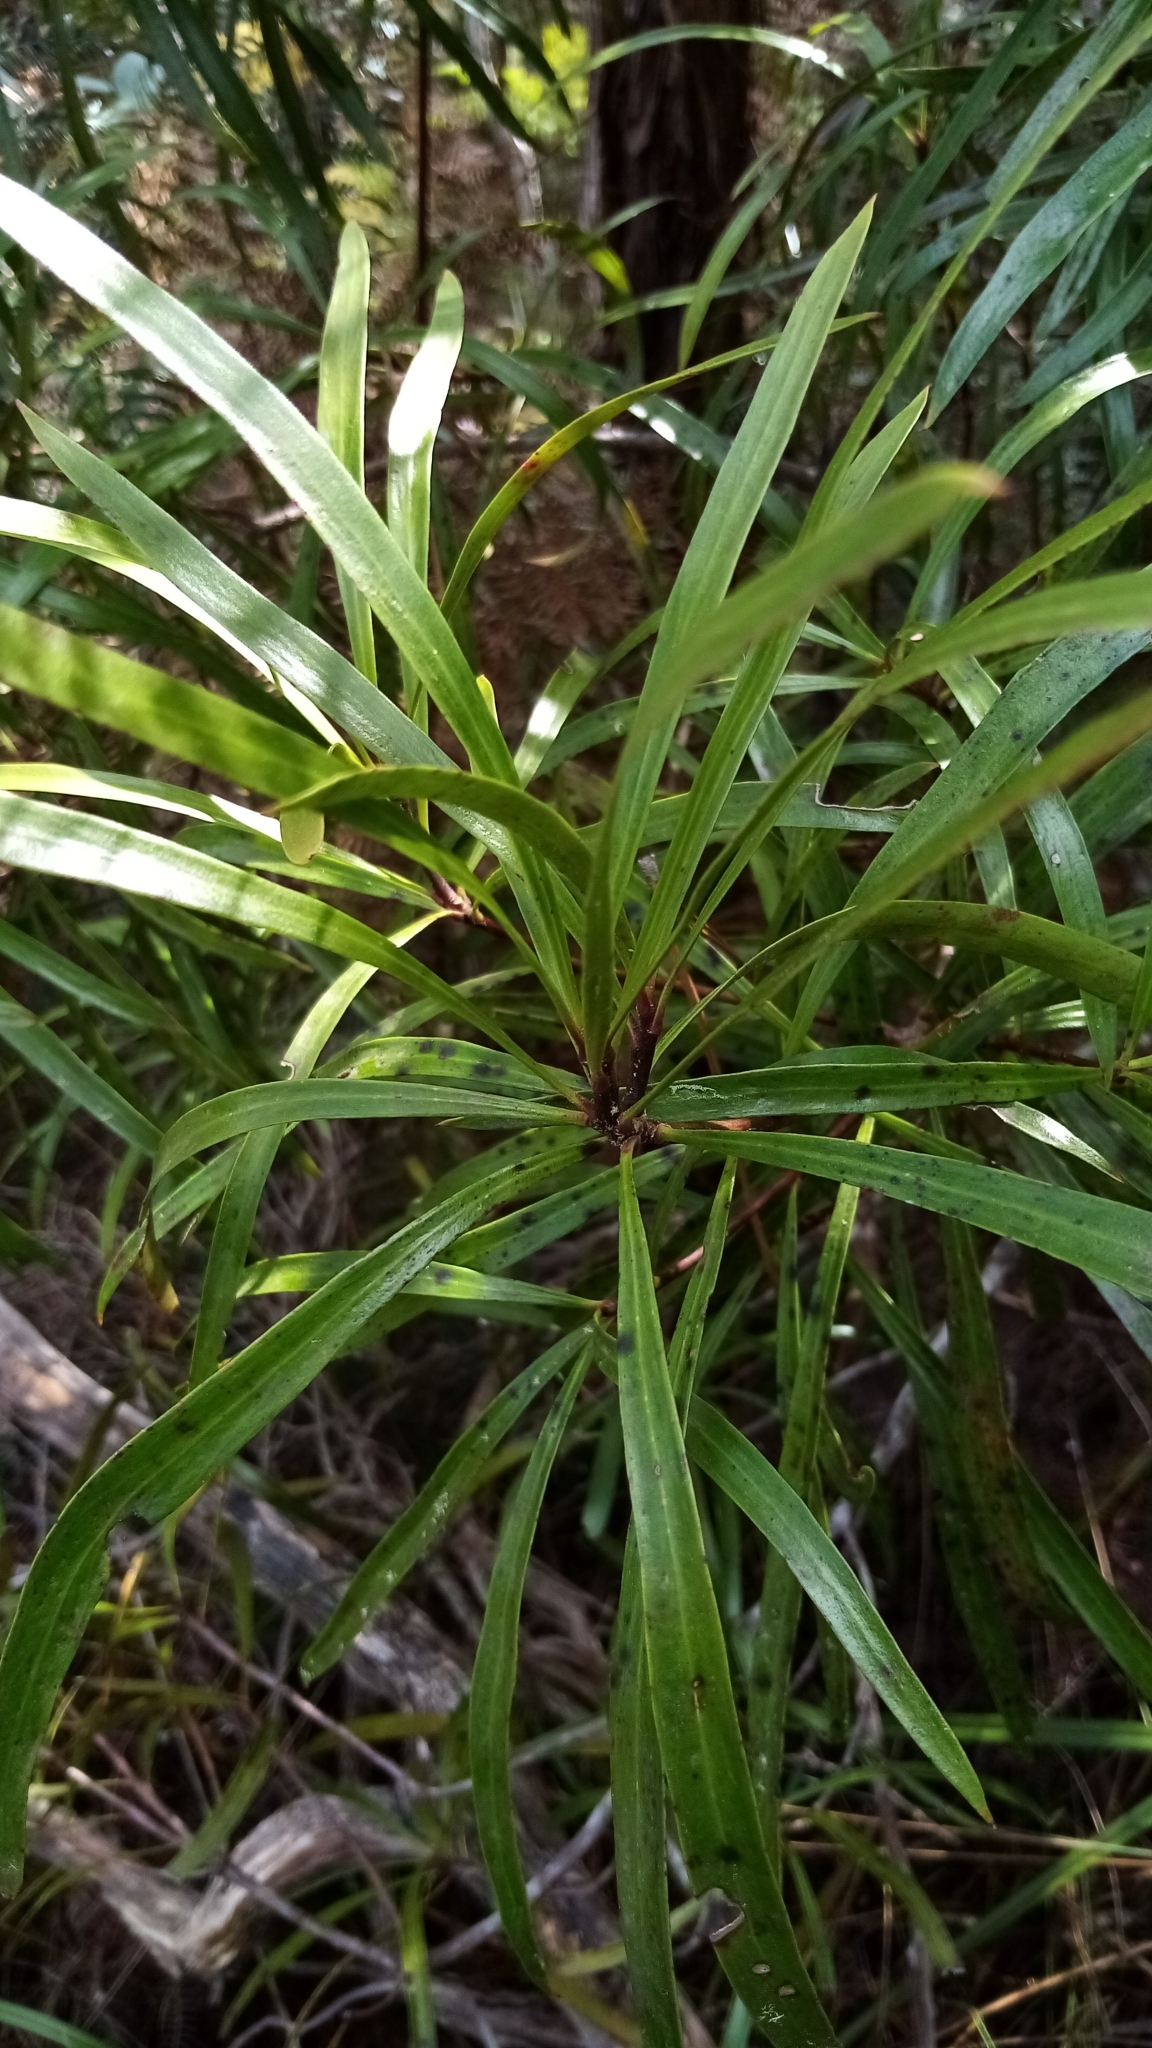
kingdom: Plantae
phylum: Tracheophyta
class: Magnoliopsida
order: Proteales
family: Proteaceae
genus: Toronia
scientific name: Toronia toru
